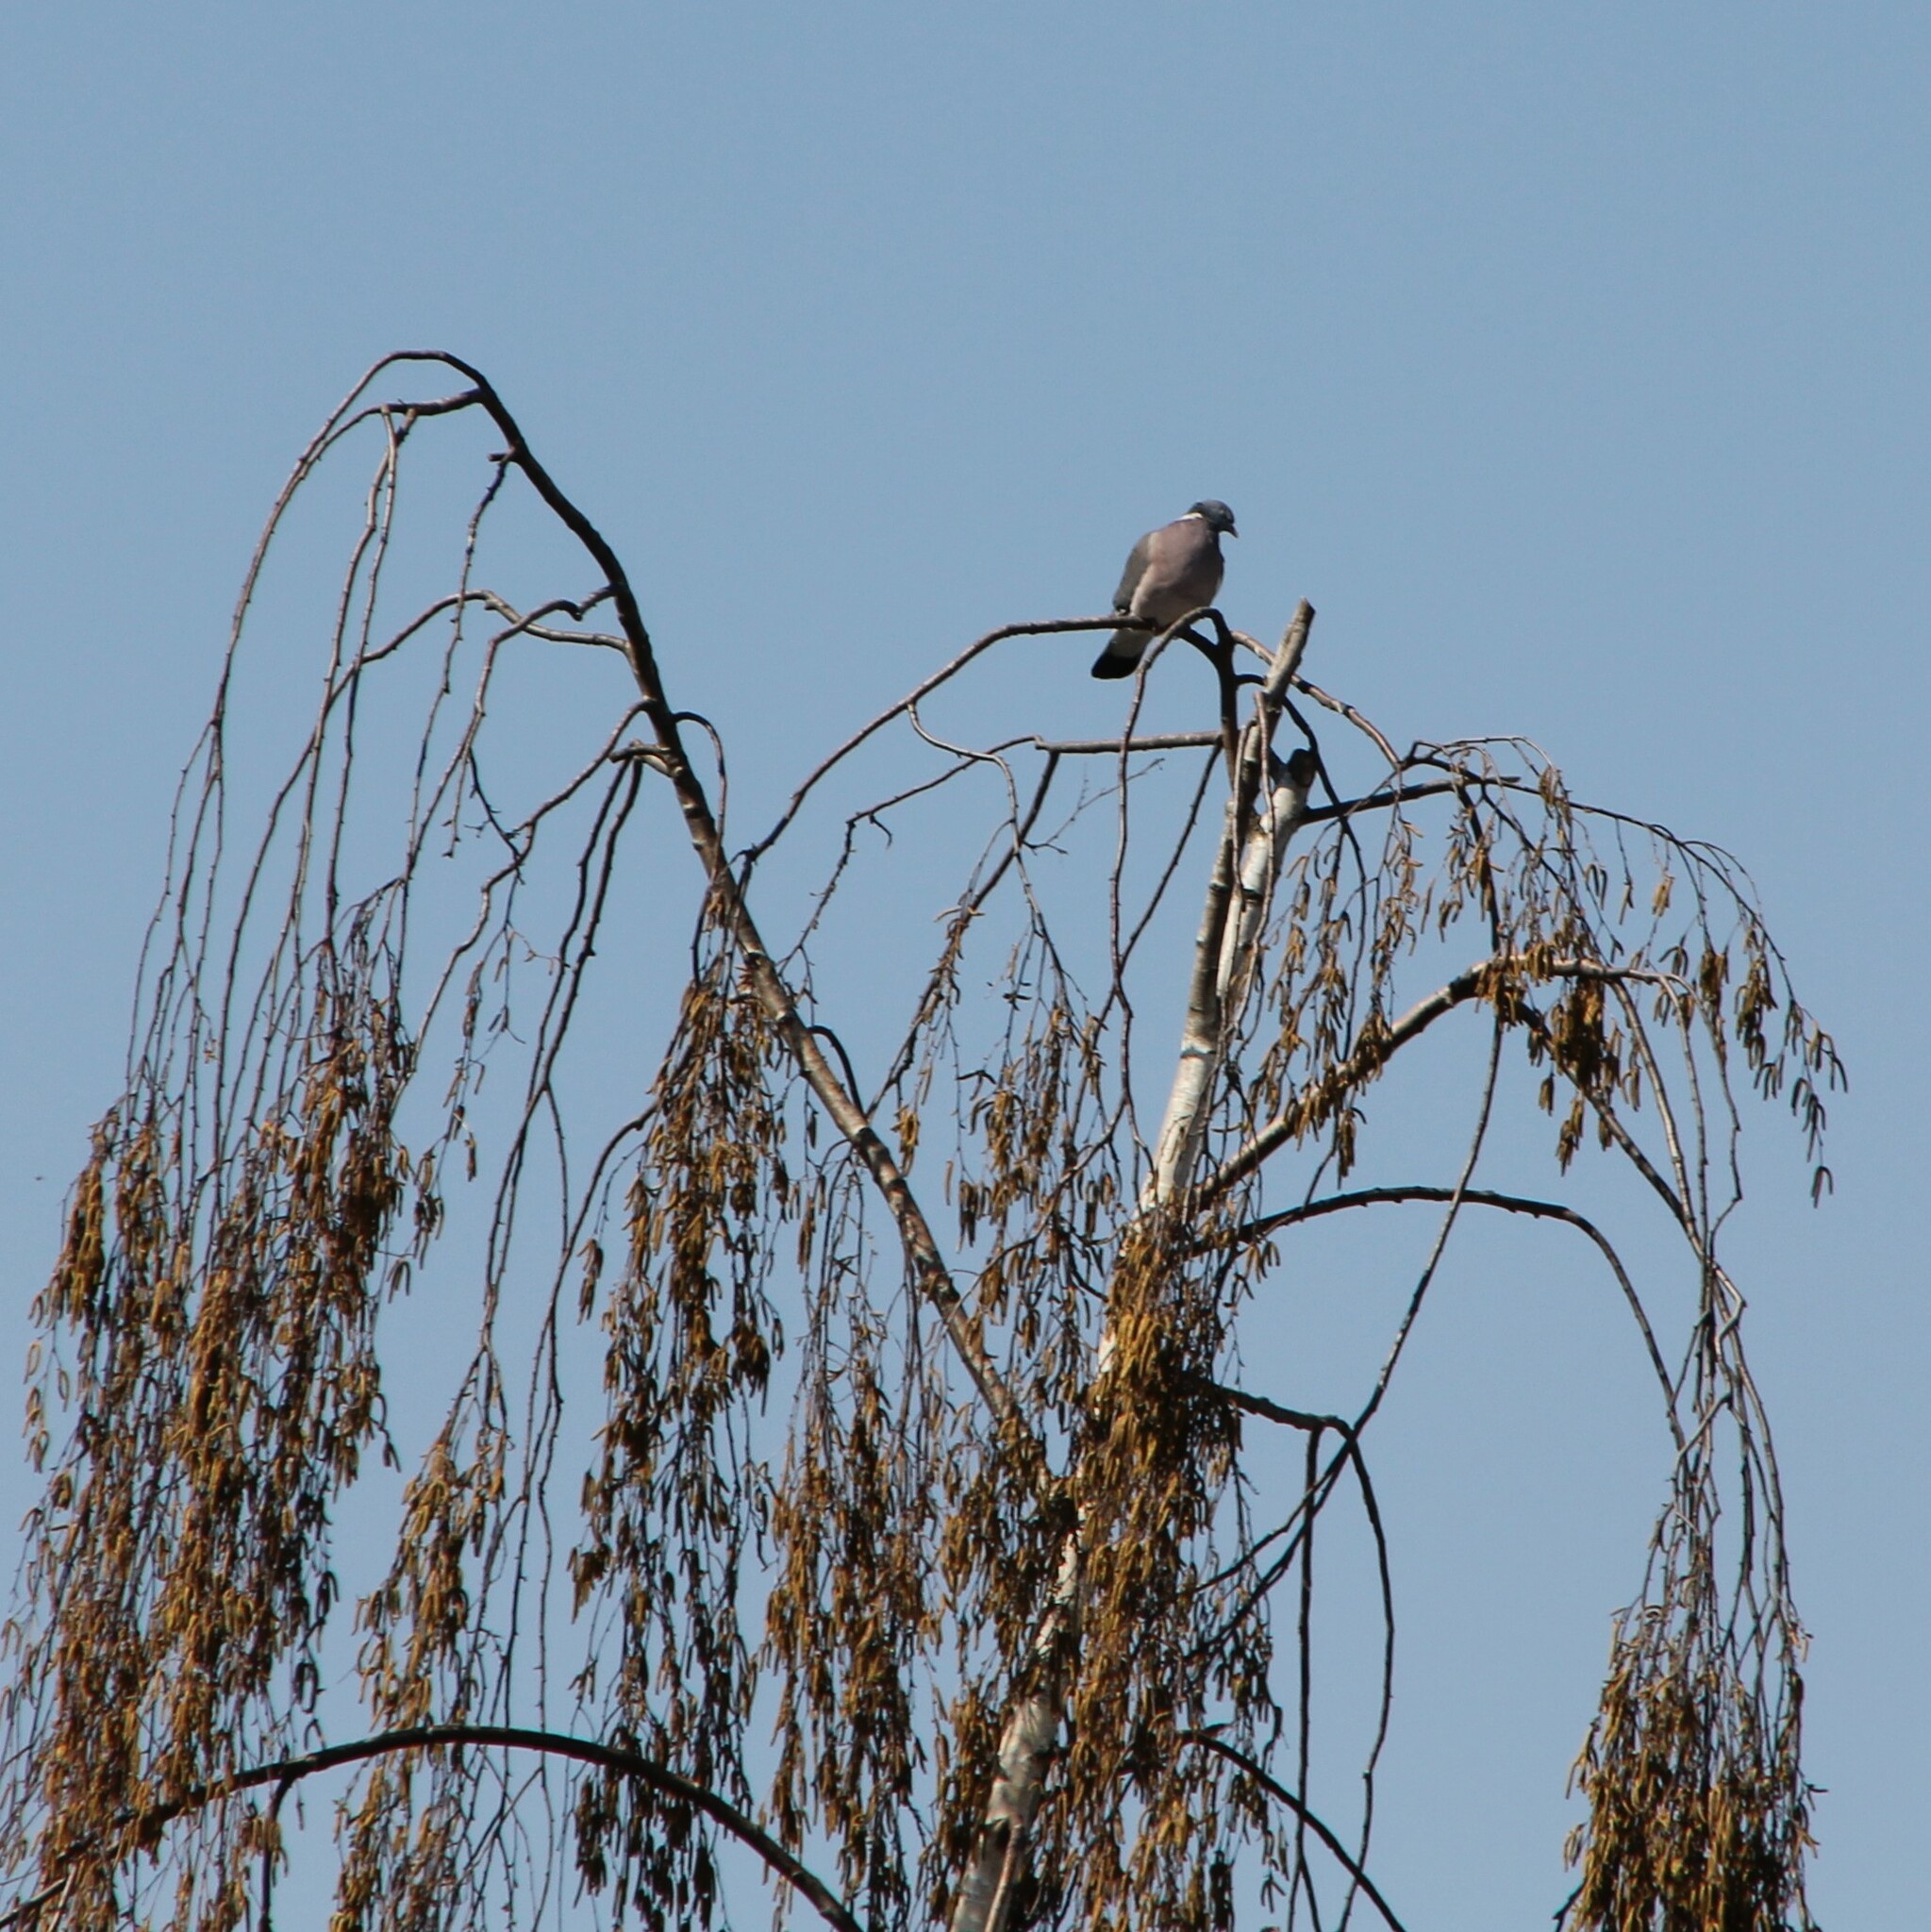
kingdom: Animalia
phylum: Chordata
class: Aves
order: Columbiformes
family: Columbidae
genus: Columba
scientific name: Columba palumbus
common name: Common wood pigeon
